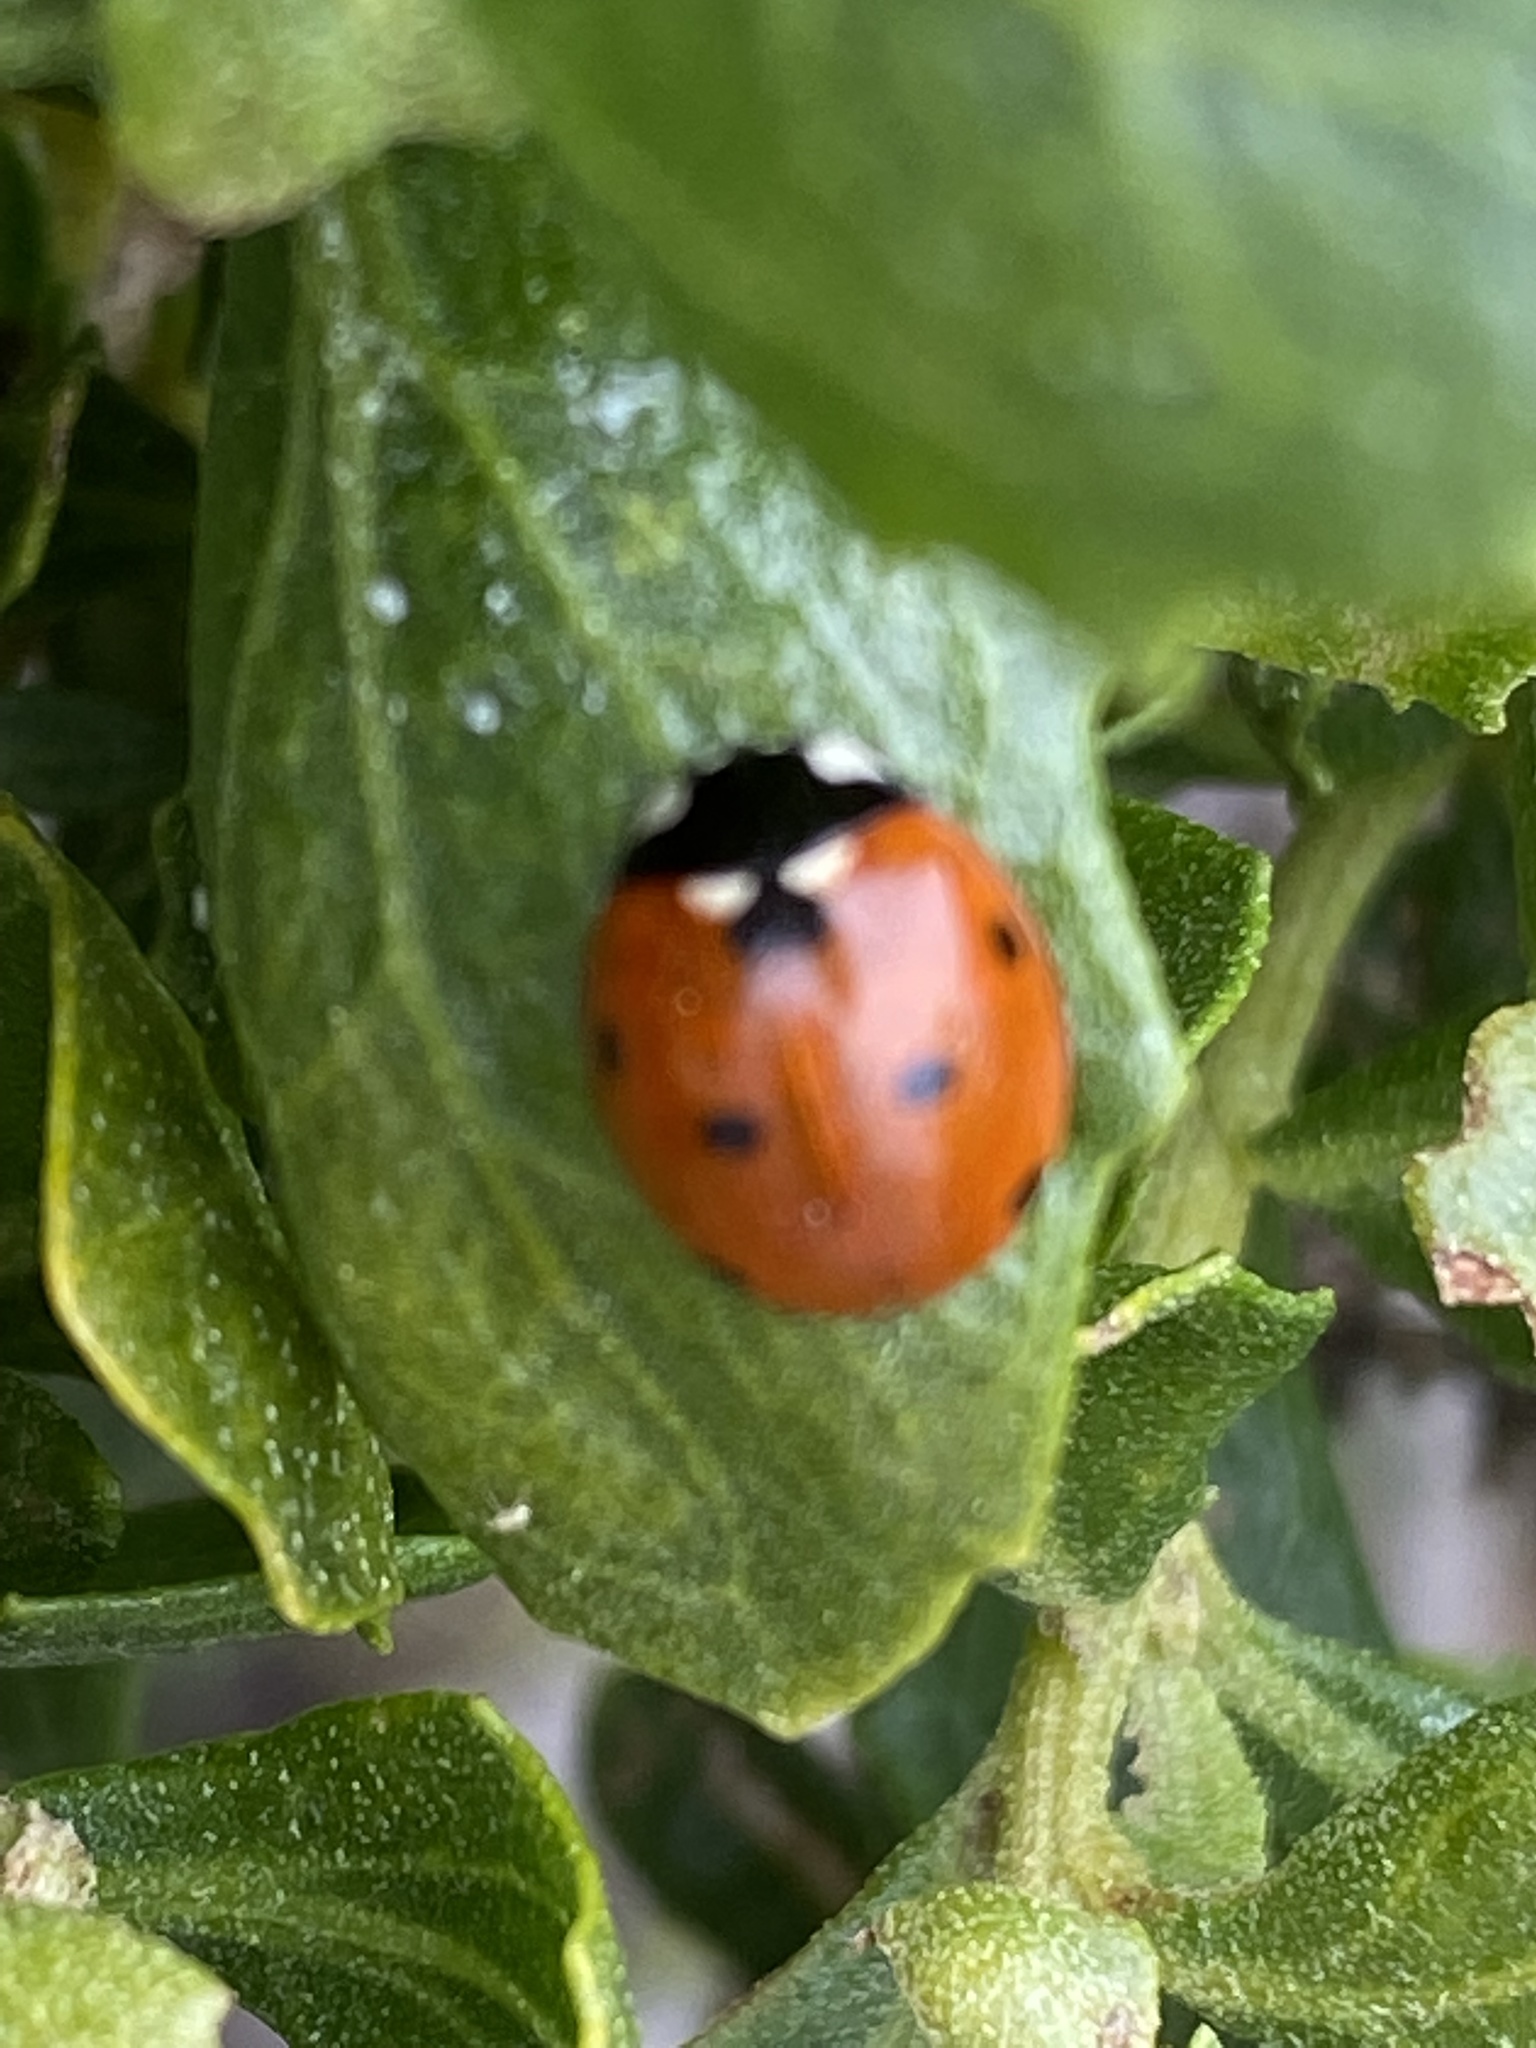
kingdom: Animalia
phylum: Arthropoda
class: Insecta
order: Coleoptera
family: Coccinellidae
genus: Coccinella
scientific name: Coccinella septempunctata
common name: Sevenspotted lady beetle
